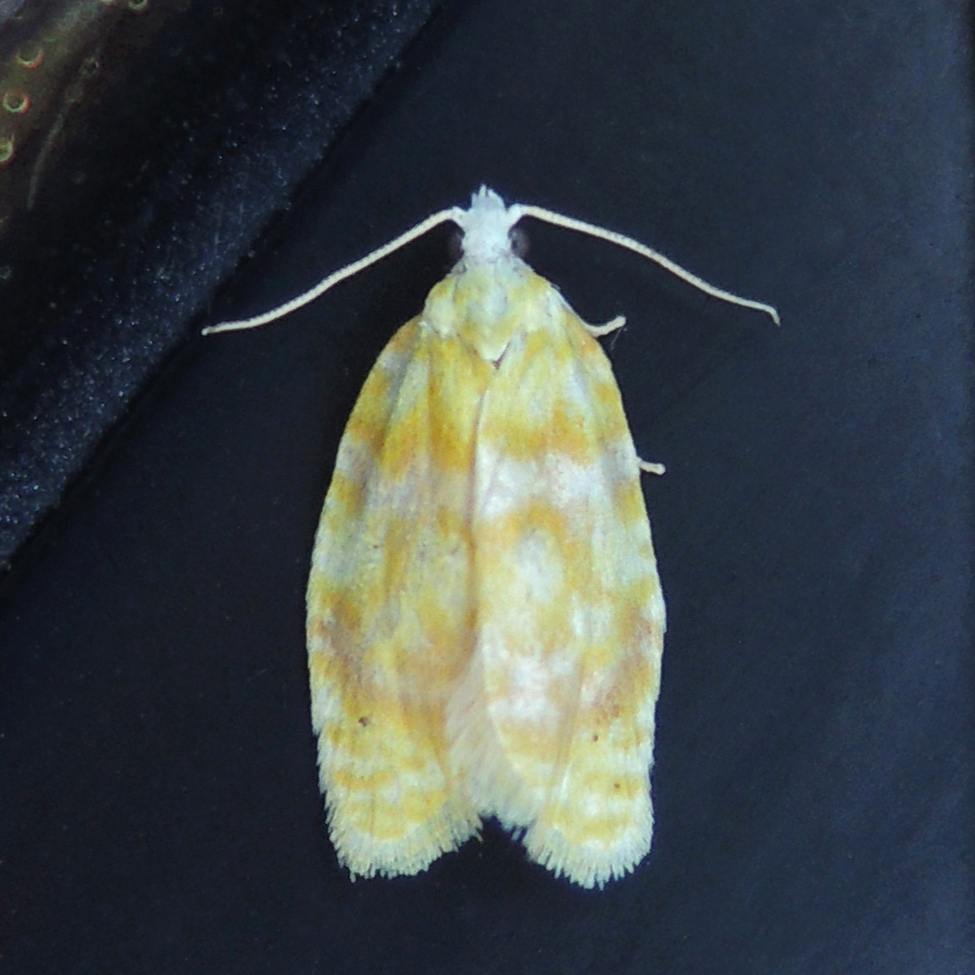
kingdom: Animalia
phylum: Arthropoda
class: Insecta
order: Lepidoptera
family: Tortricidae
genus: Acleris
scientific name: Acleris semipurpurana
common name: Oak leaftier moth
